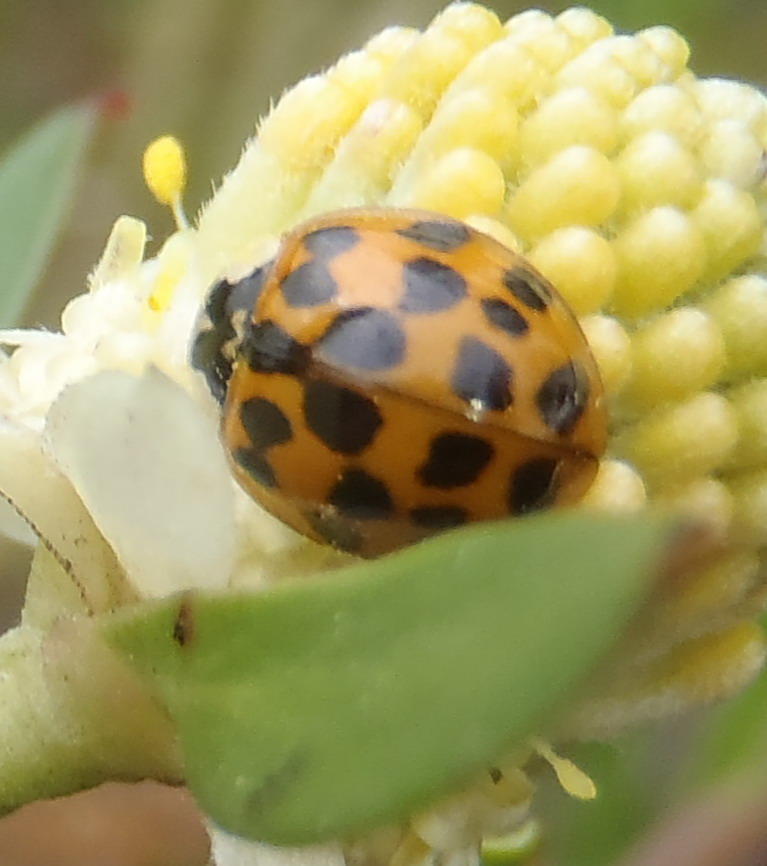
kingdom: Animalia
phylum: Arthropoda
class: Insecta
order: Coleoptera
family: Coccinellidae
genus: Harmonia
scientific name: Harmonia axyridis
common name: Harlequin ladybird
